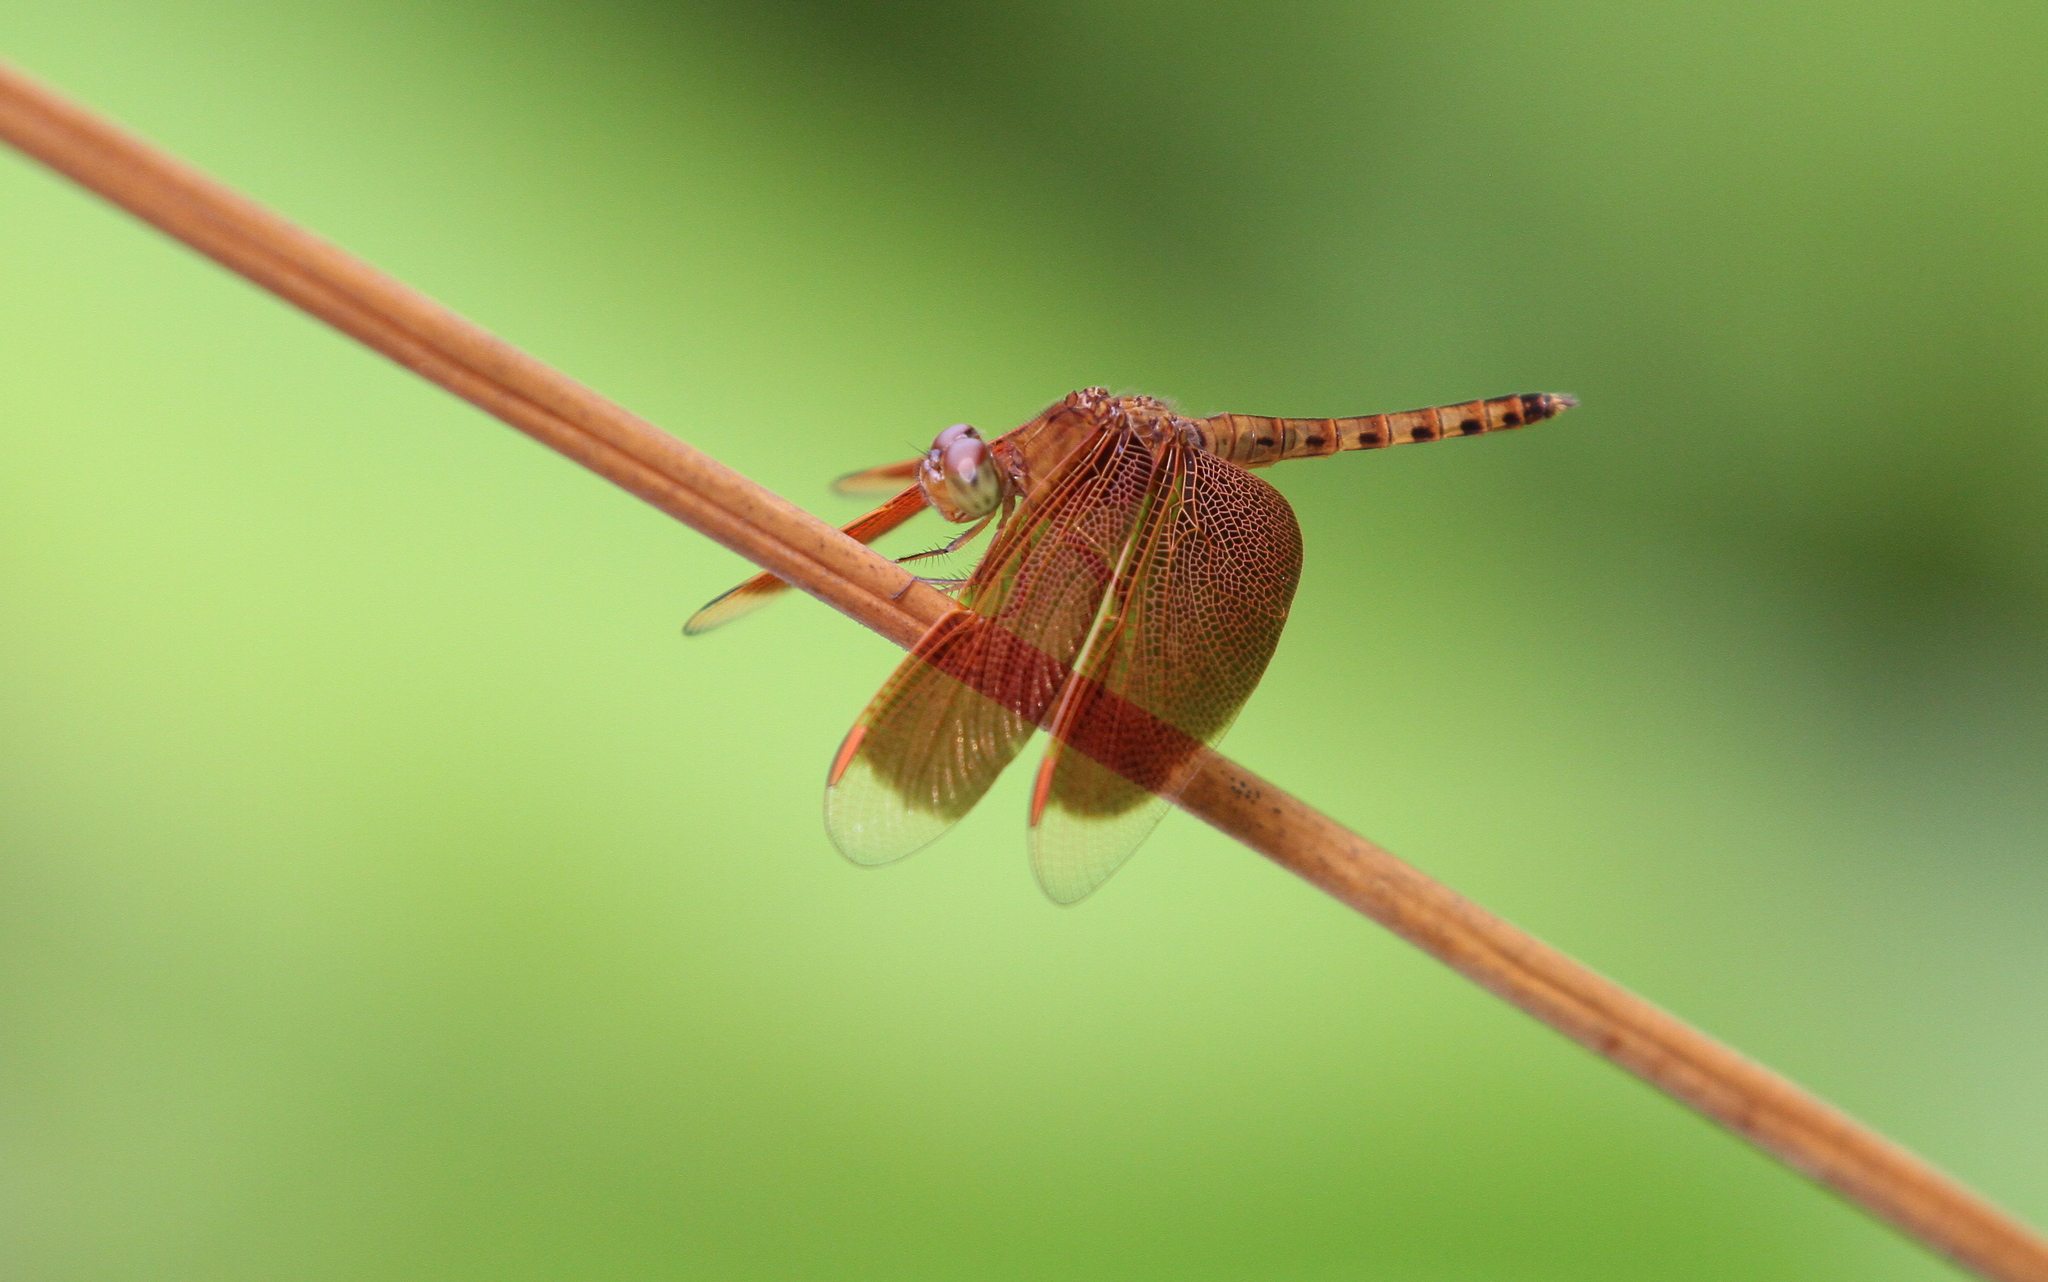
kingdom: Animalia
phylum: Arthropoda
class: Insecta
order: Odonata
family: Libellulidae
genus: Neurothemis
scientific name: Neurothemis fluctuans
